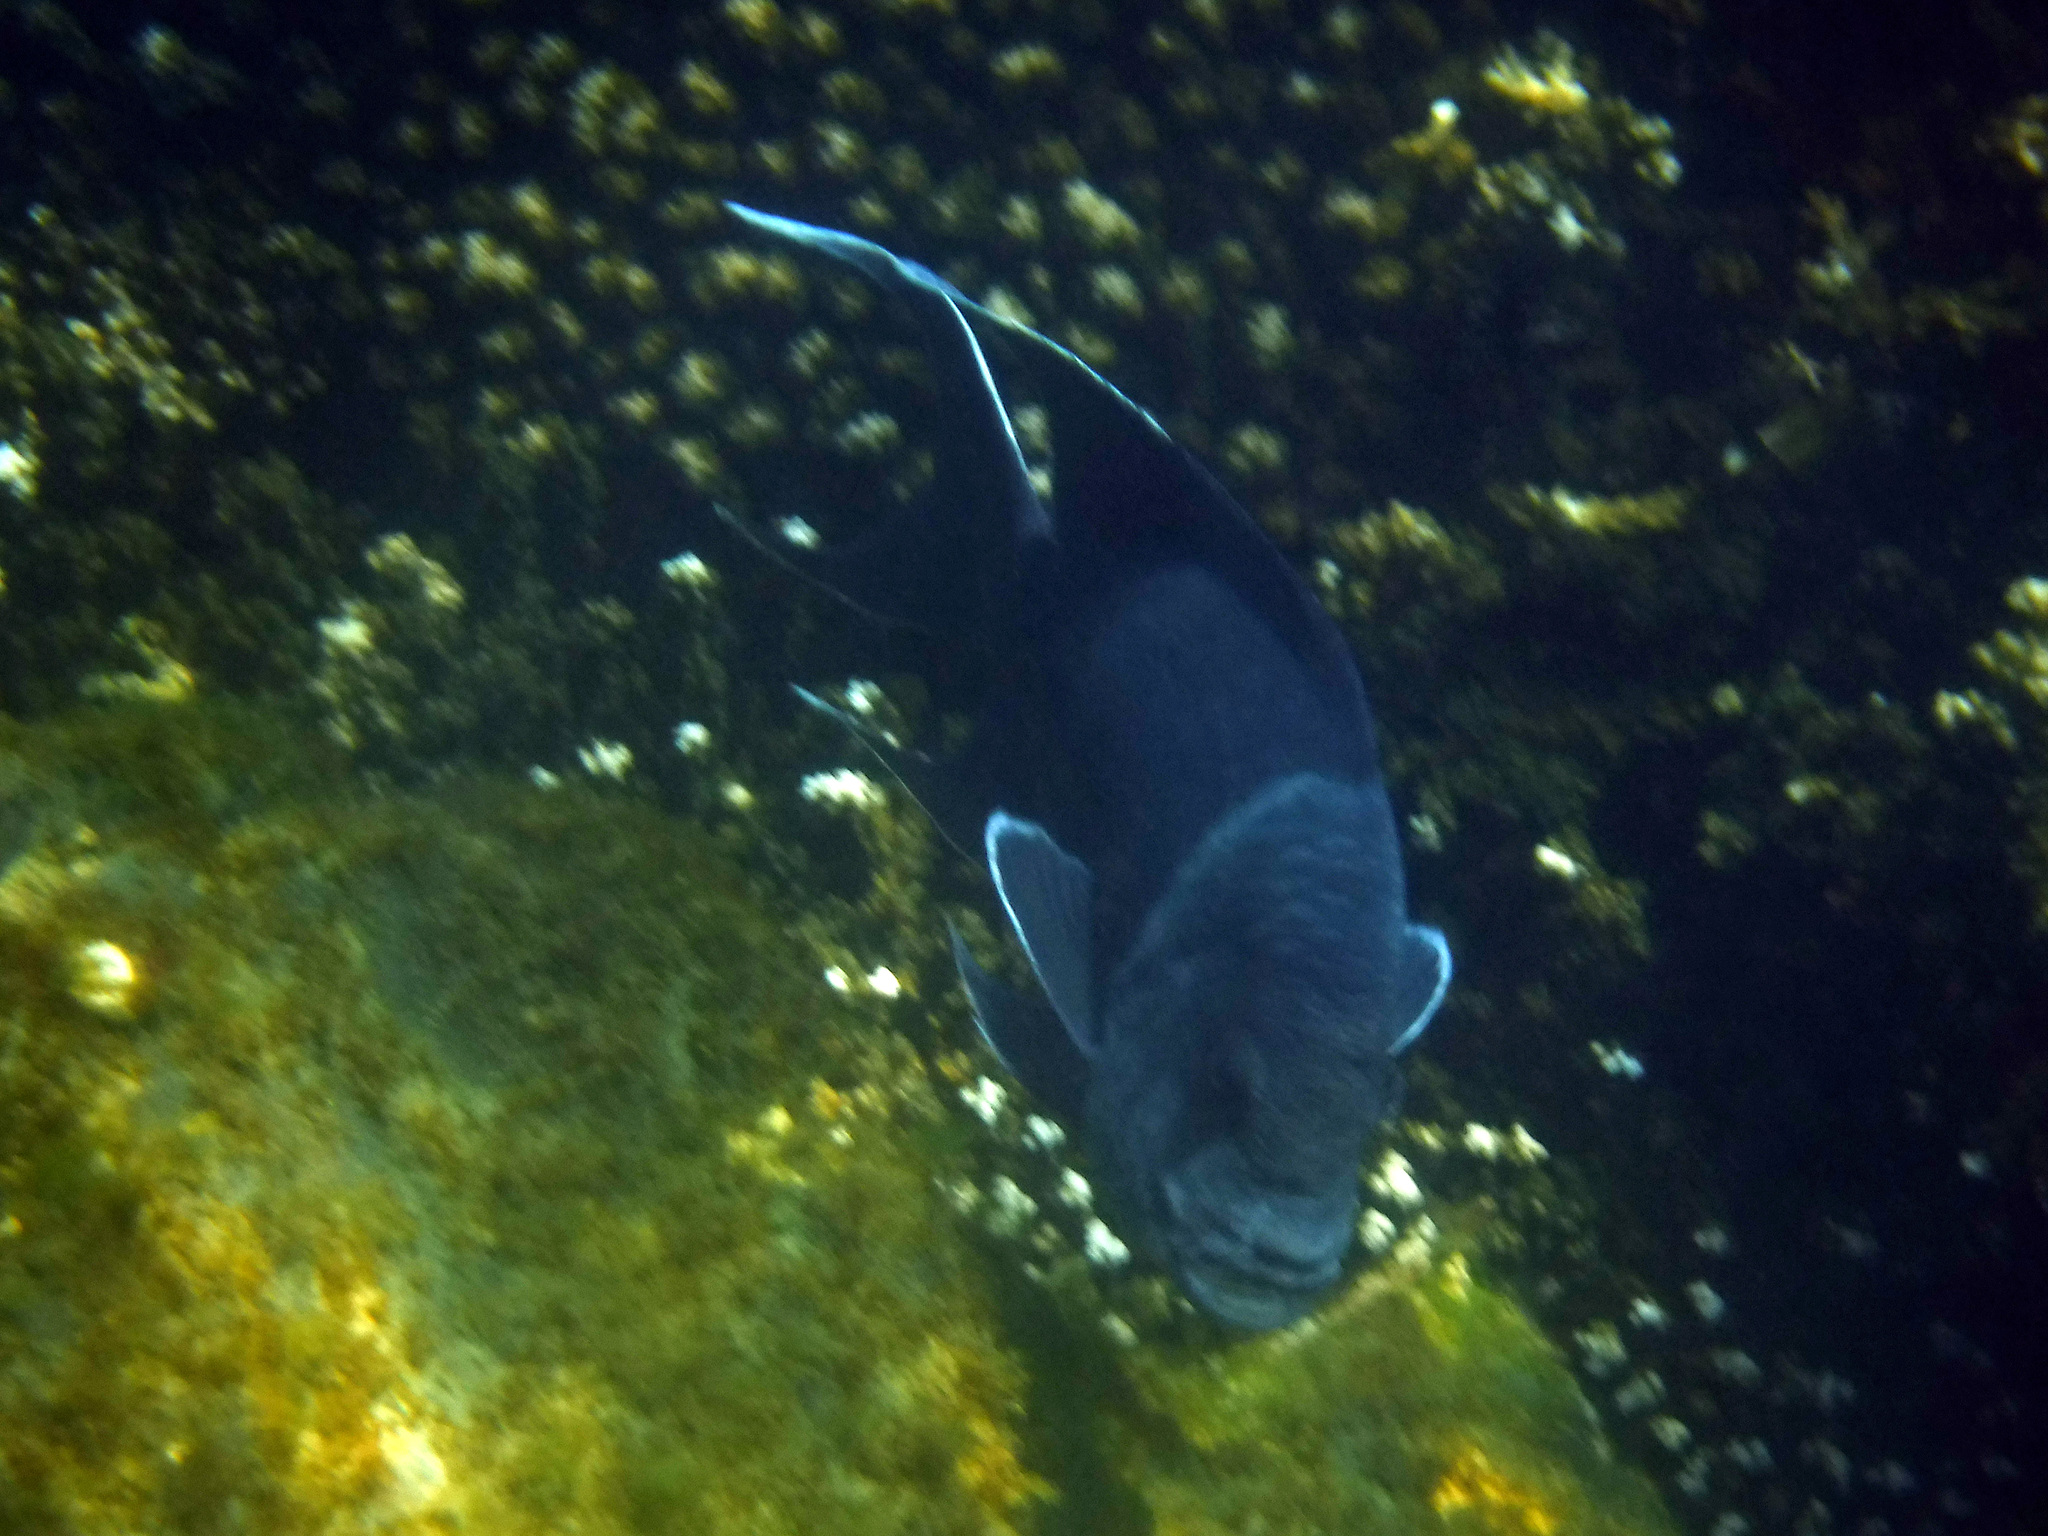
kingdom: Animalia
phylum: Chordata
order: Perciformes
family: Pomacentridae
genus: Microspathodon
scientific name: Microspathodon dorsalis
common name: Giant damselfish
